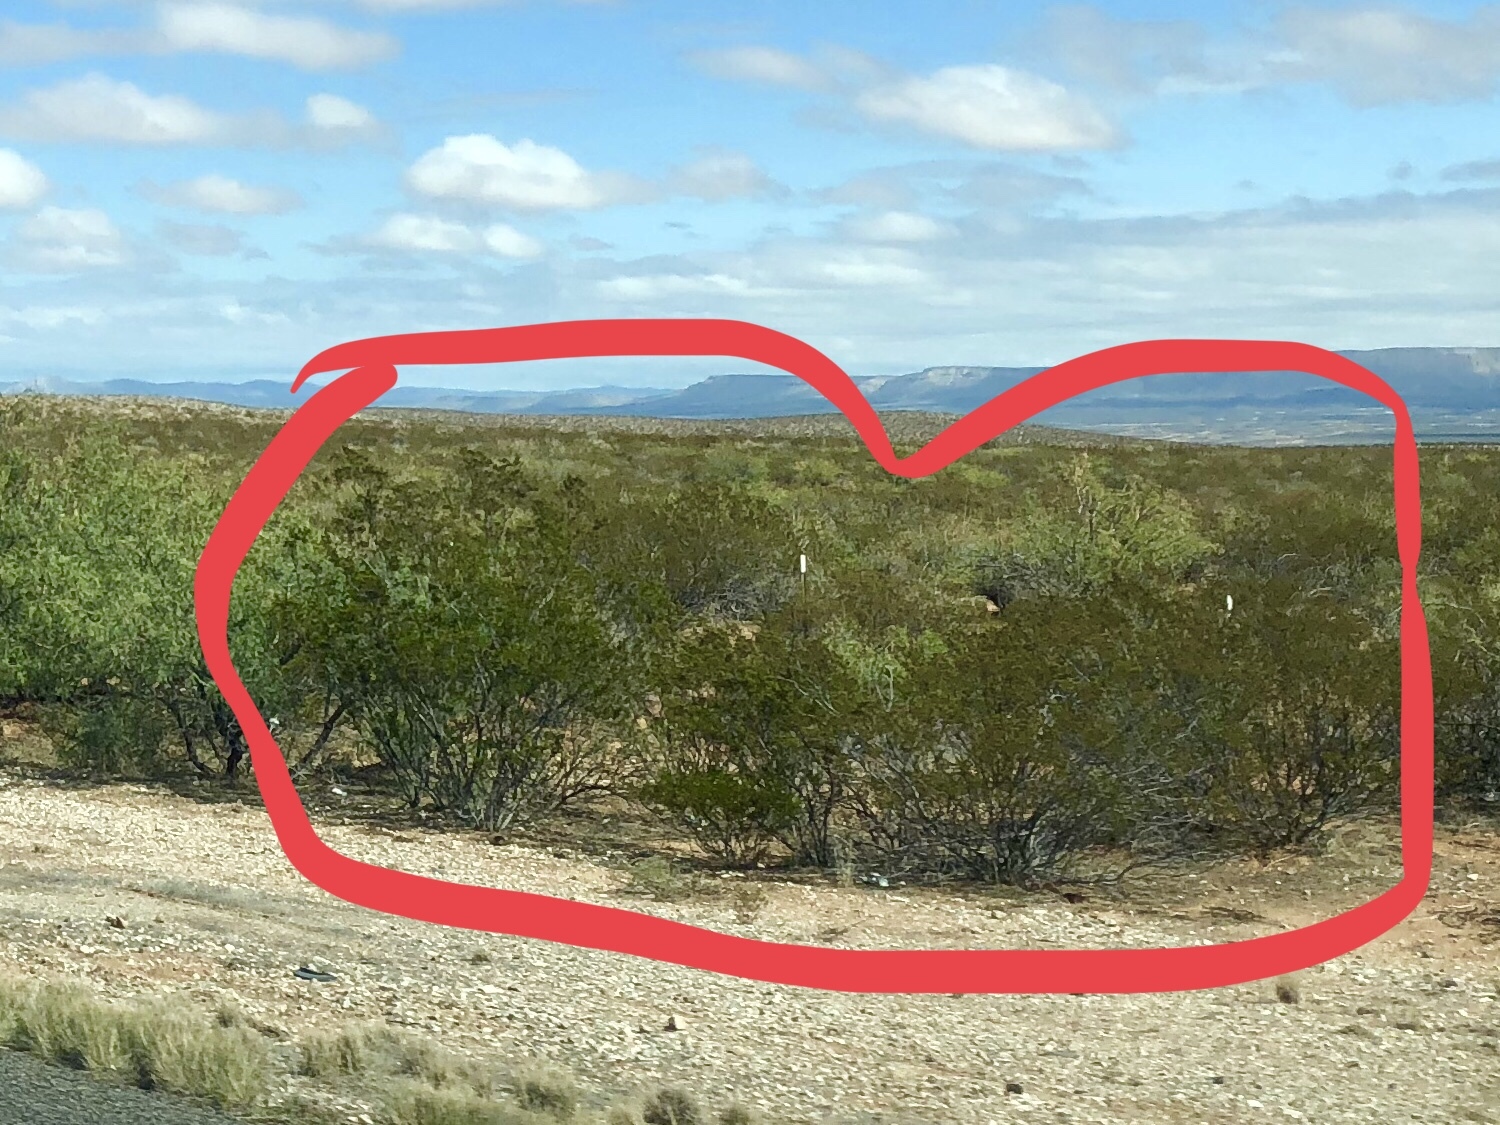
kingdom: Plantae
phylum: Tracheophyta
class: Magnoliopsida
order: Zygophyllales
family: Zygophyllaceae
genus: Larrea
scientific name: Larrea tridentata
